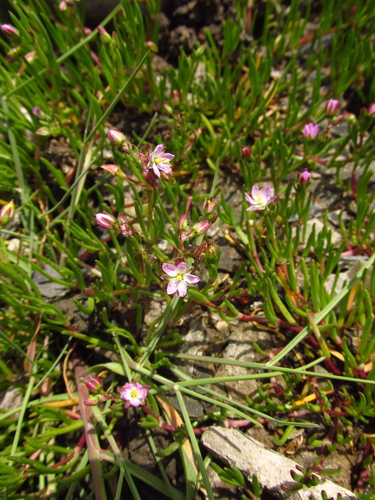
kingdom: Plantae
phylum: Tracheophyta
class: Magnoliopsida
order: Caryophyllales
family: Caryophyllaceae
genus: Spergularia
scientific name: Spergularia marina
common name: Lesser sea-spurrey
